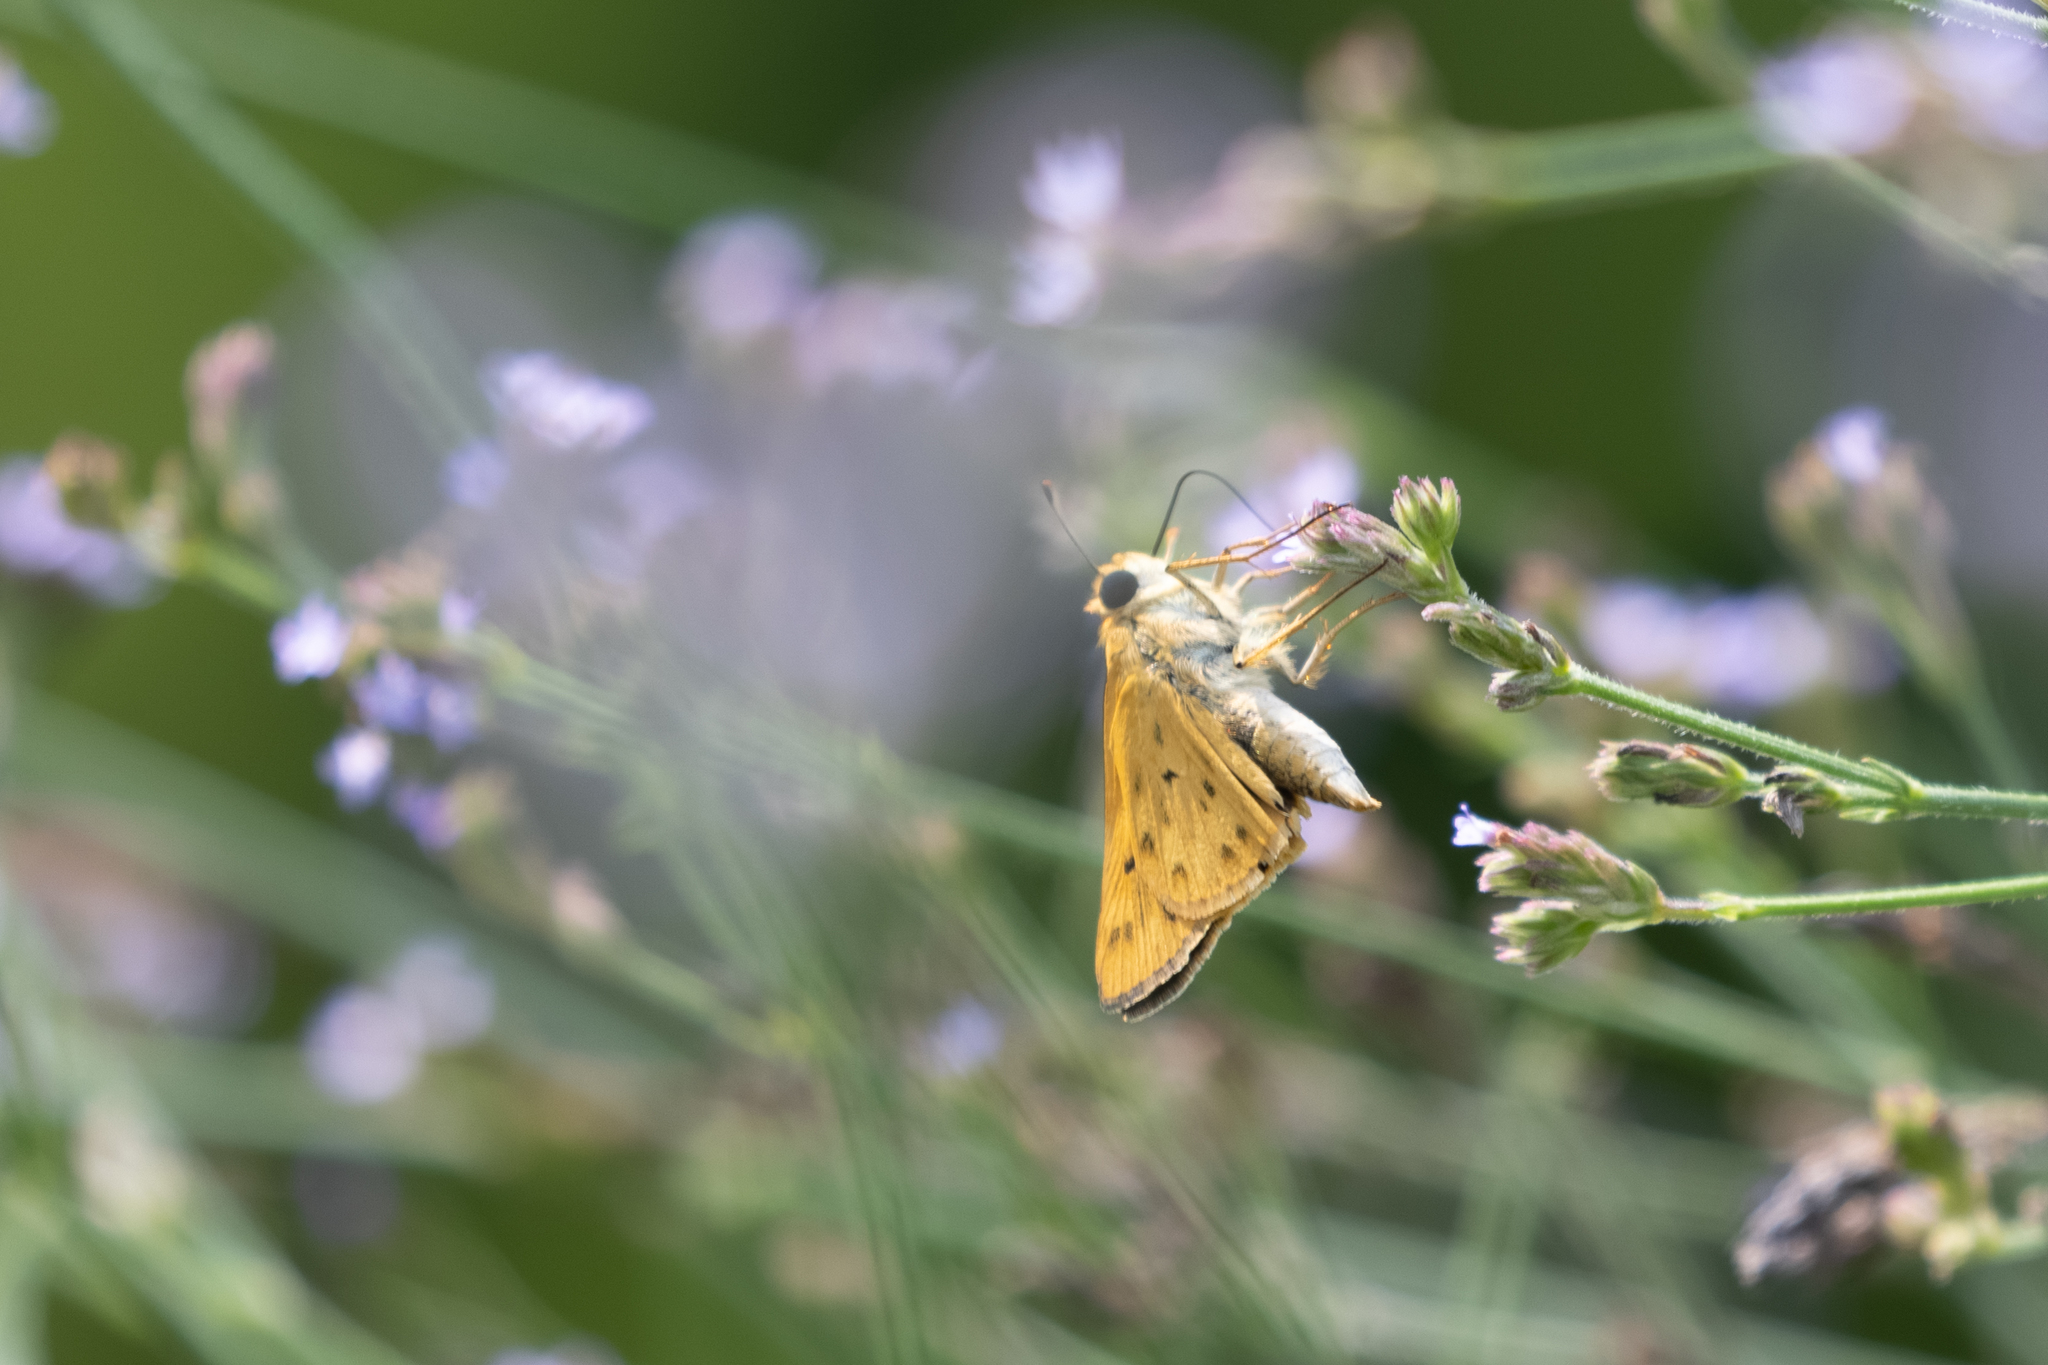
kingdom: Animalia
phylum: Arthropoda
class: Insecta
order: Lepidoptera
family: Hesperiidae
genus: Hylephila
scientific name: Hylephila phyleus
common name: Fiery skipper
